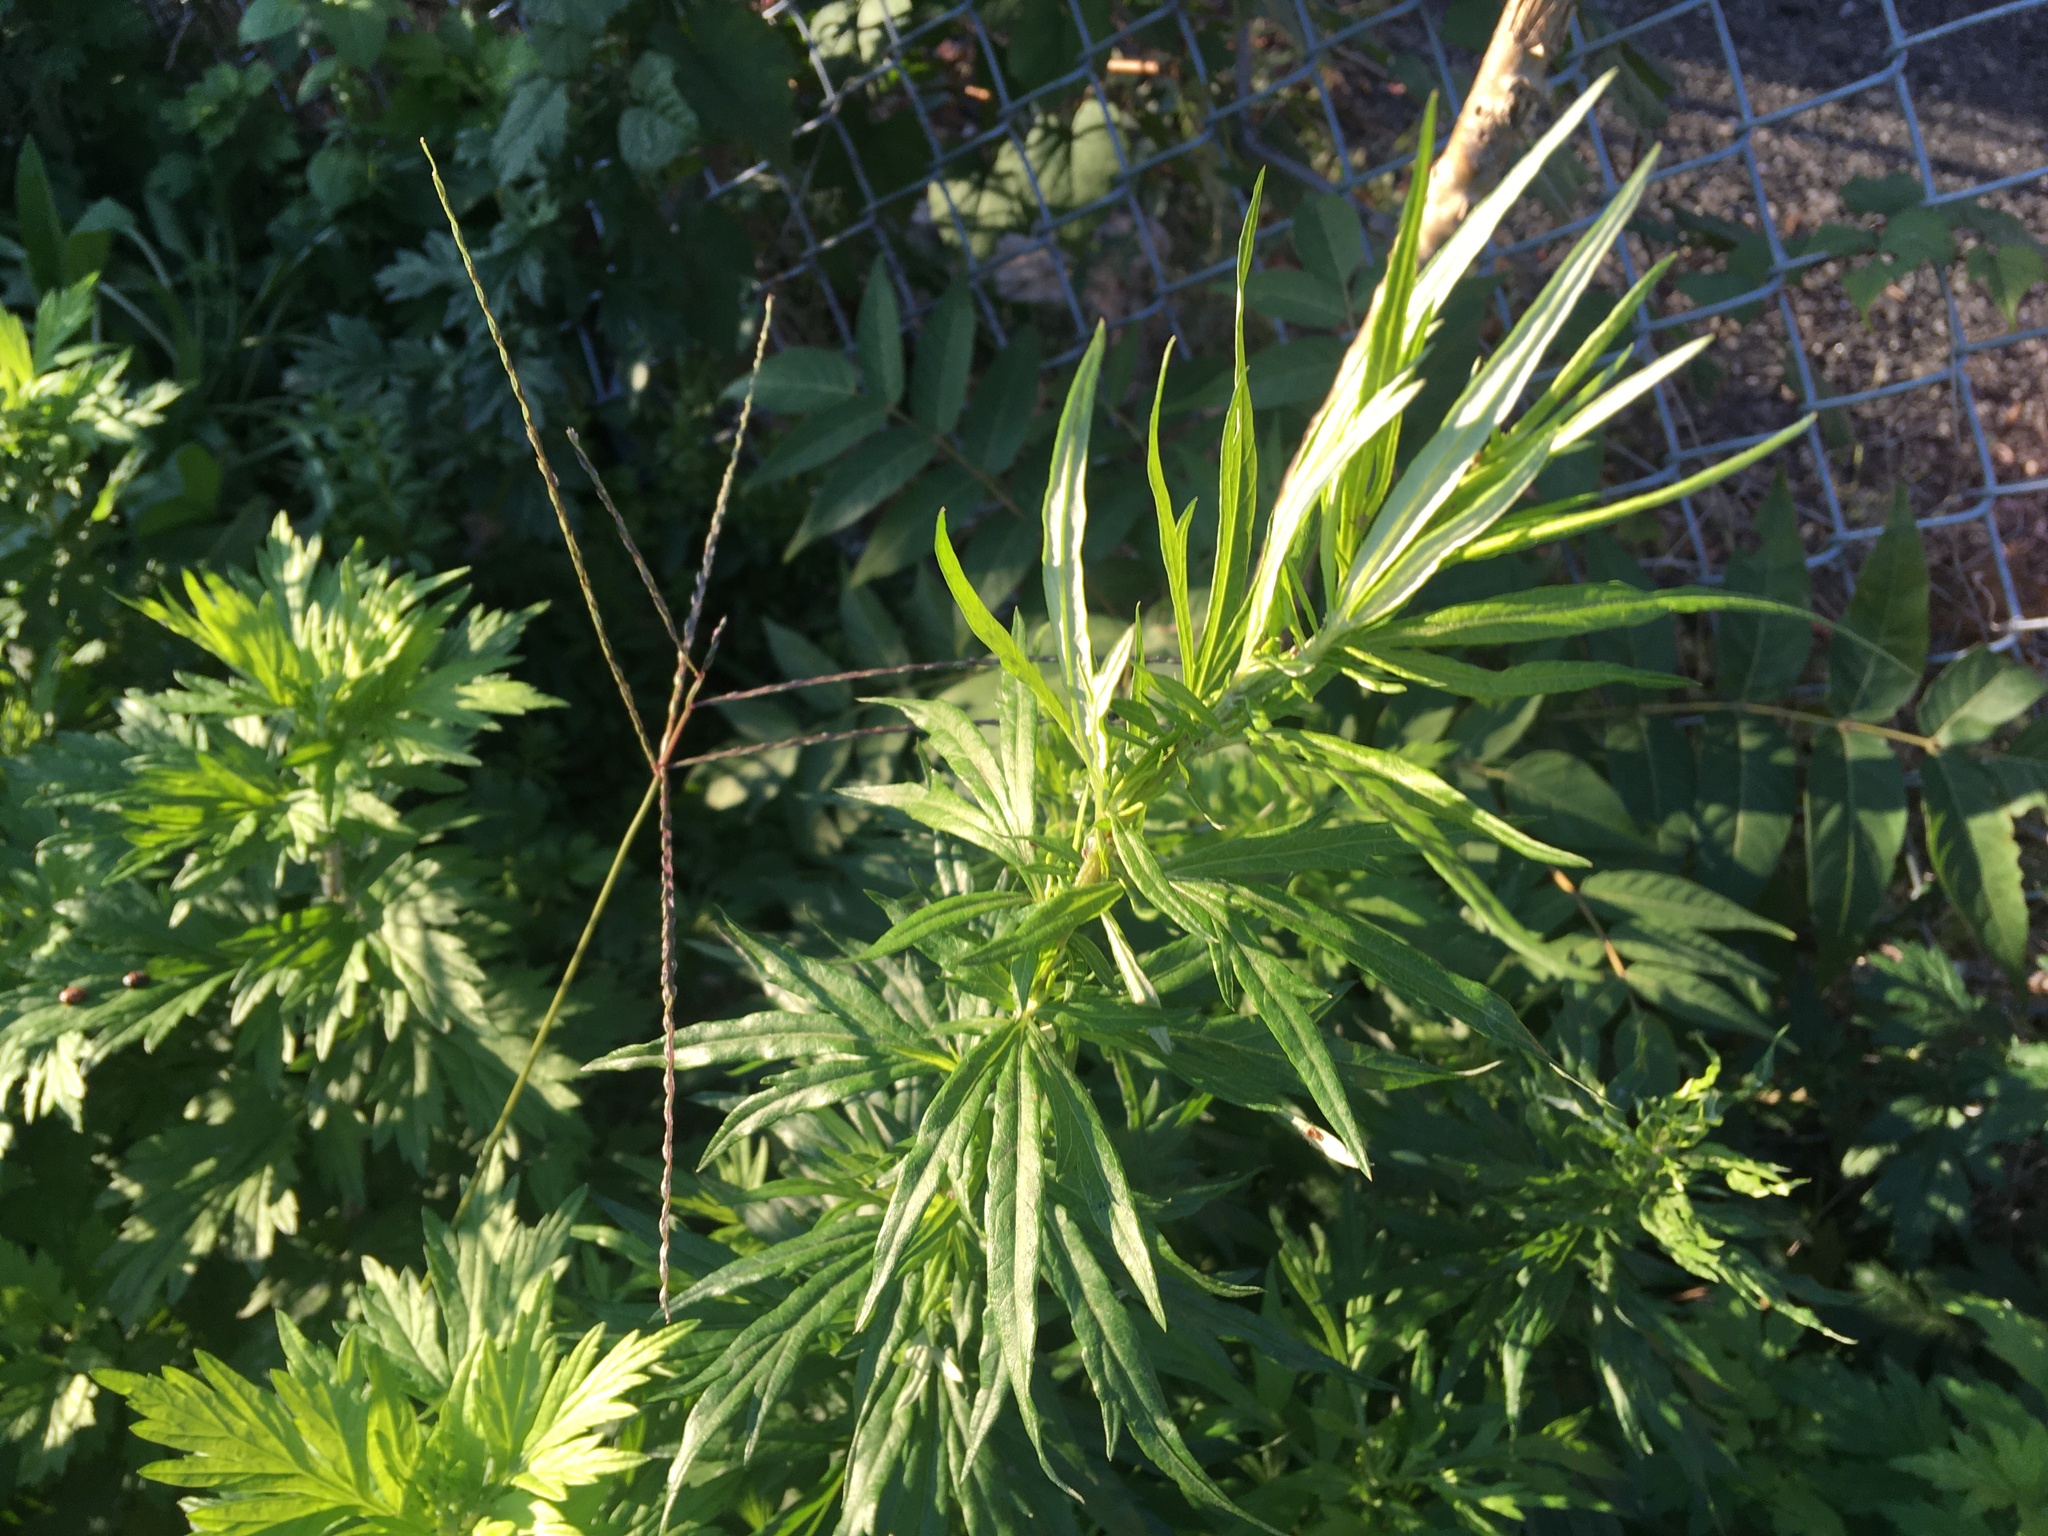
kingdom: Plantae
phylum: Tracheophyta
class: Magnoliopsida
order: Asterales
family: Asteraceae
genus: Artemisia
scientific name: Artemisia vulgaris
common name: Mugwort
